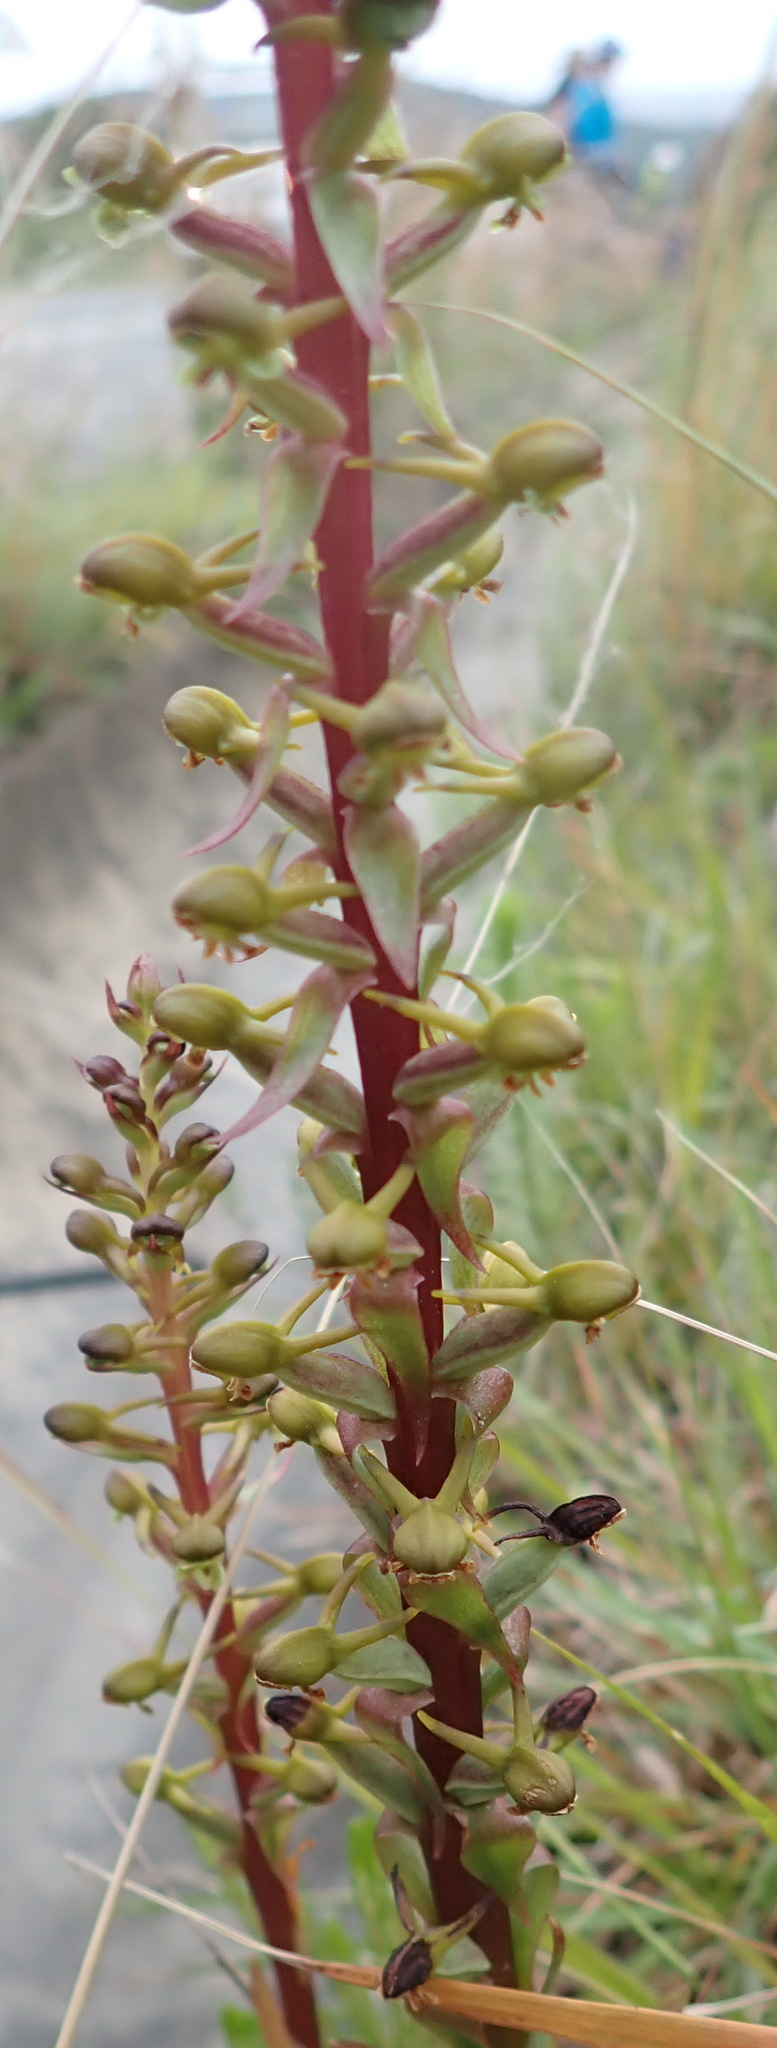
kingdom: Plantae
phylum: Tracheophyta
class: Liliopsida
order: Asparagales
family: Orchidaceae
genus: Satyrium
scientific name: Satyrium parviflorum
